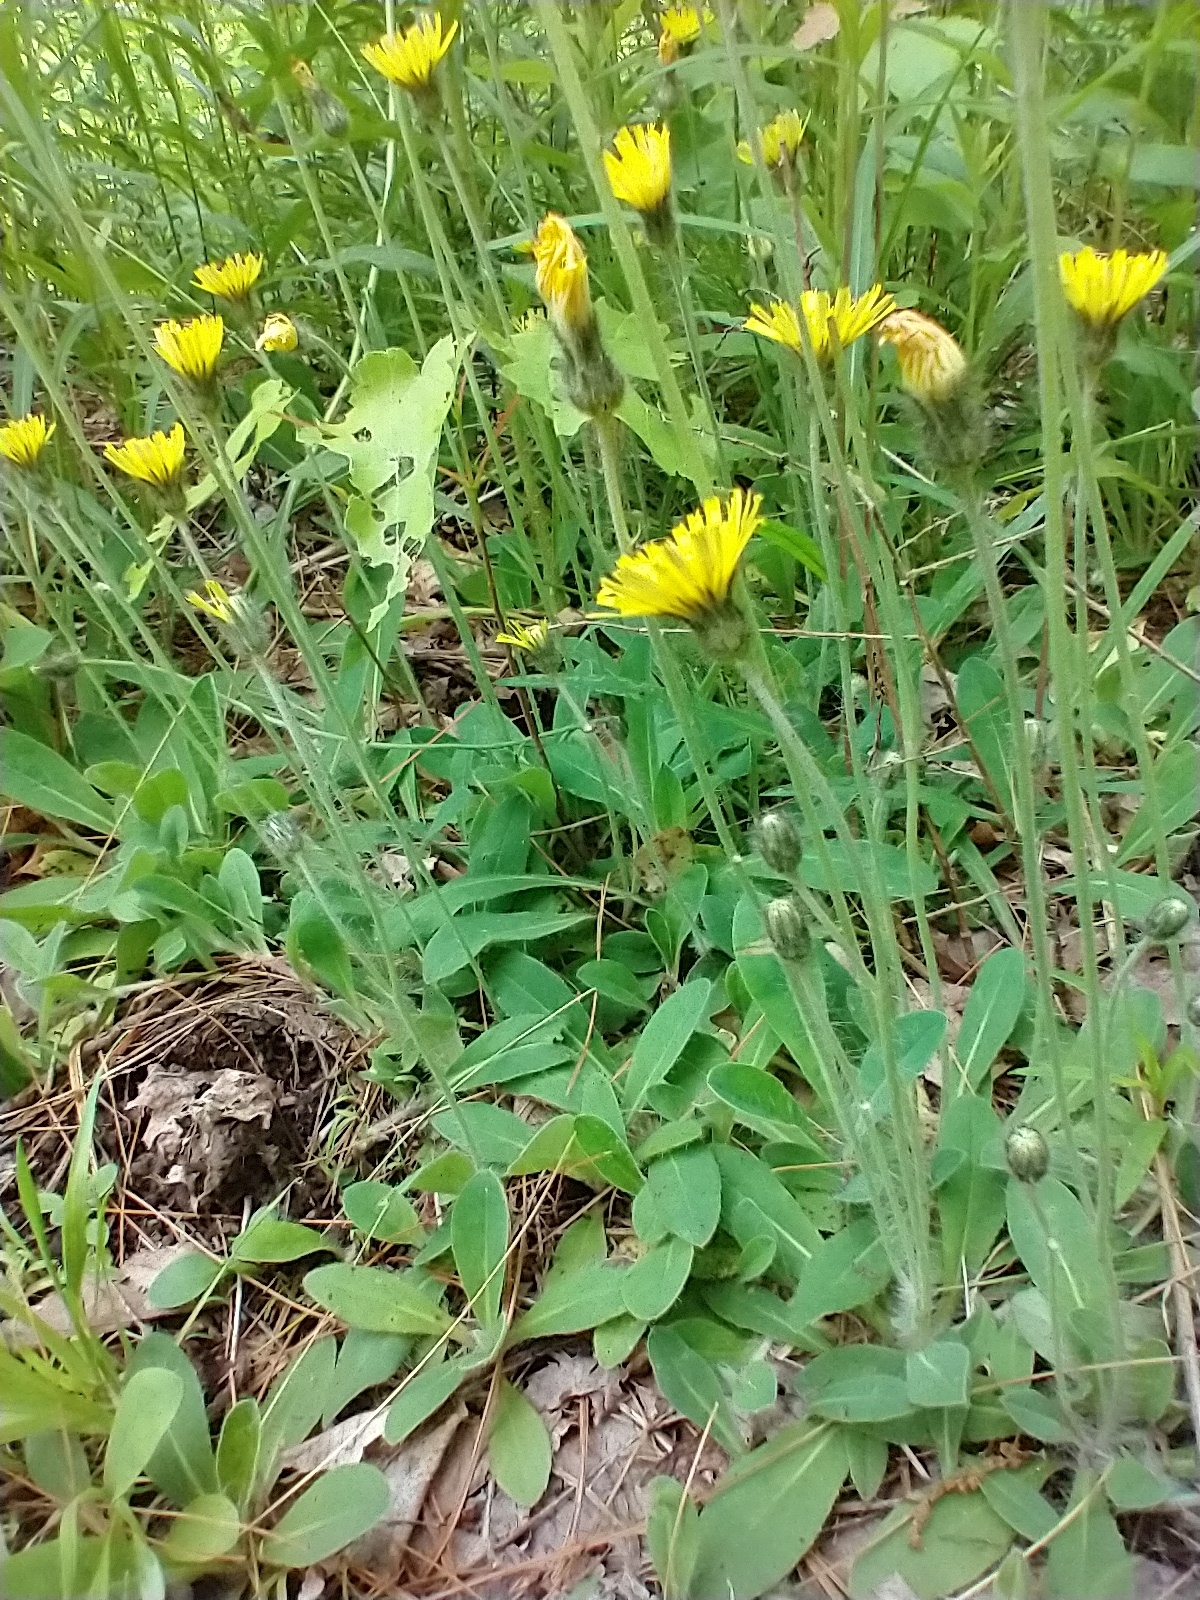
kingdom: Plantae
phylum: Tracheophyta
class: Magnoliopsida
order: Asterales
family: Asteraceae
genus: Pilosella
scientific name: Pilosella officinarum
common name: Mouse-ear hawkweed
